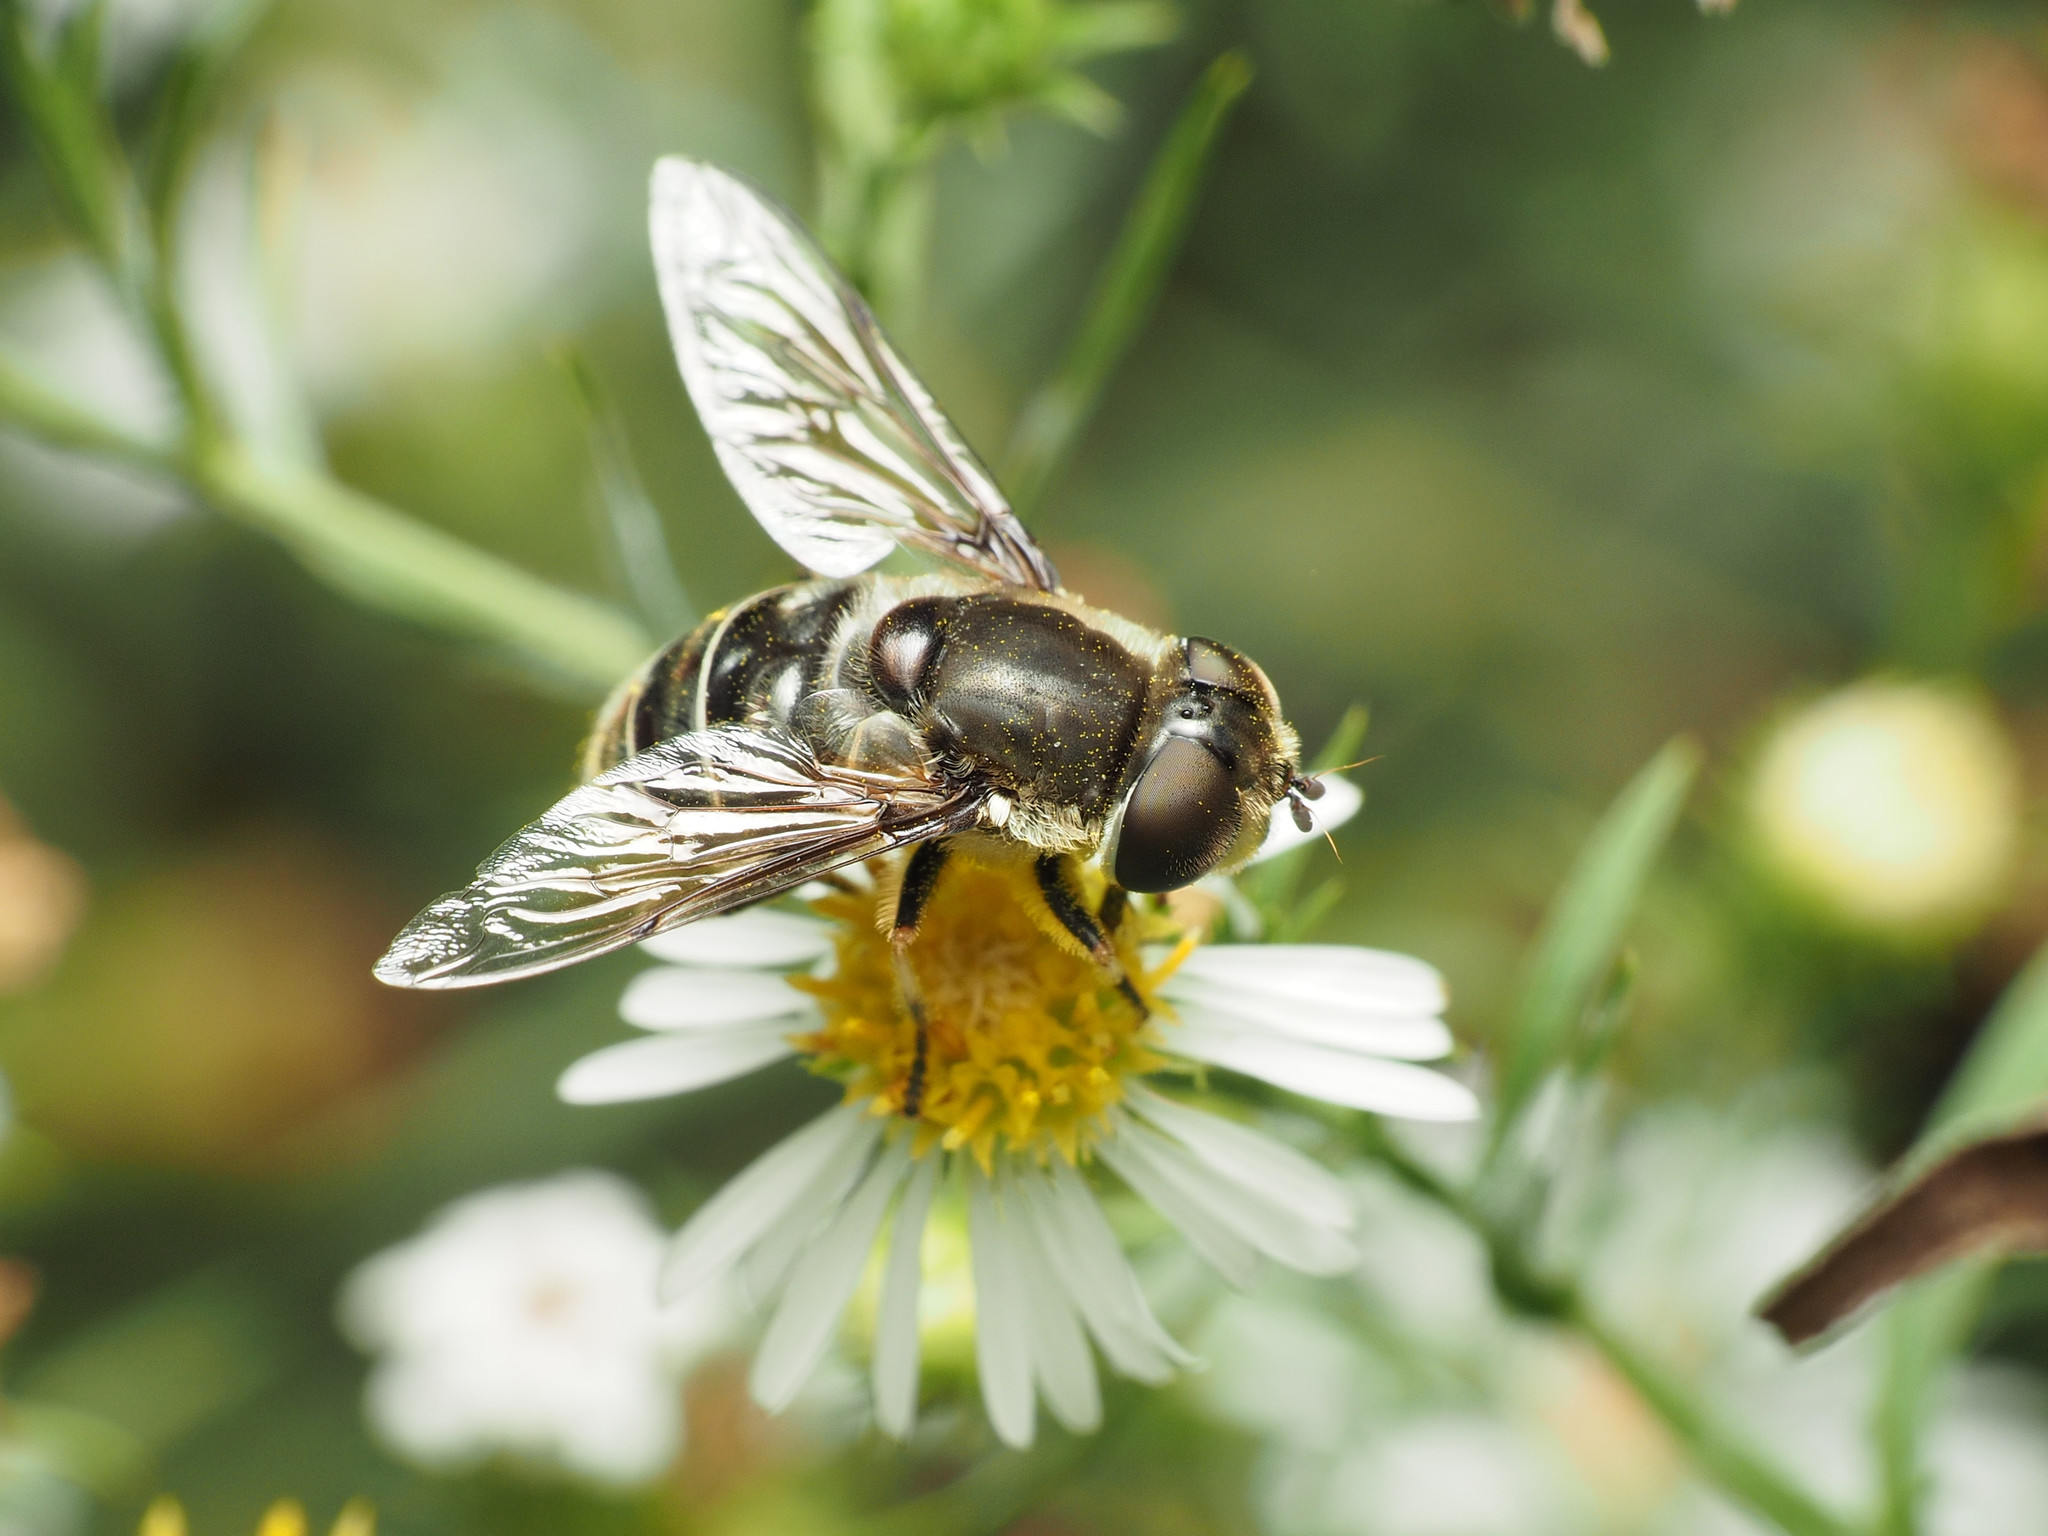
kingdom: Animalia
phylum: Arthropoda
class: Insecta
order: Diptera
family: Syrphidae
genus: Eristalis
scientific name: Eristalis dimidiata
